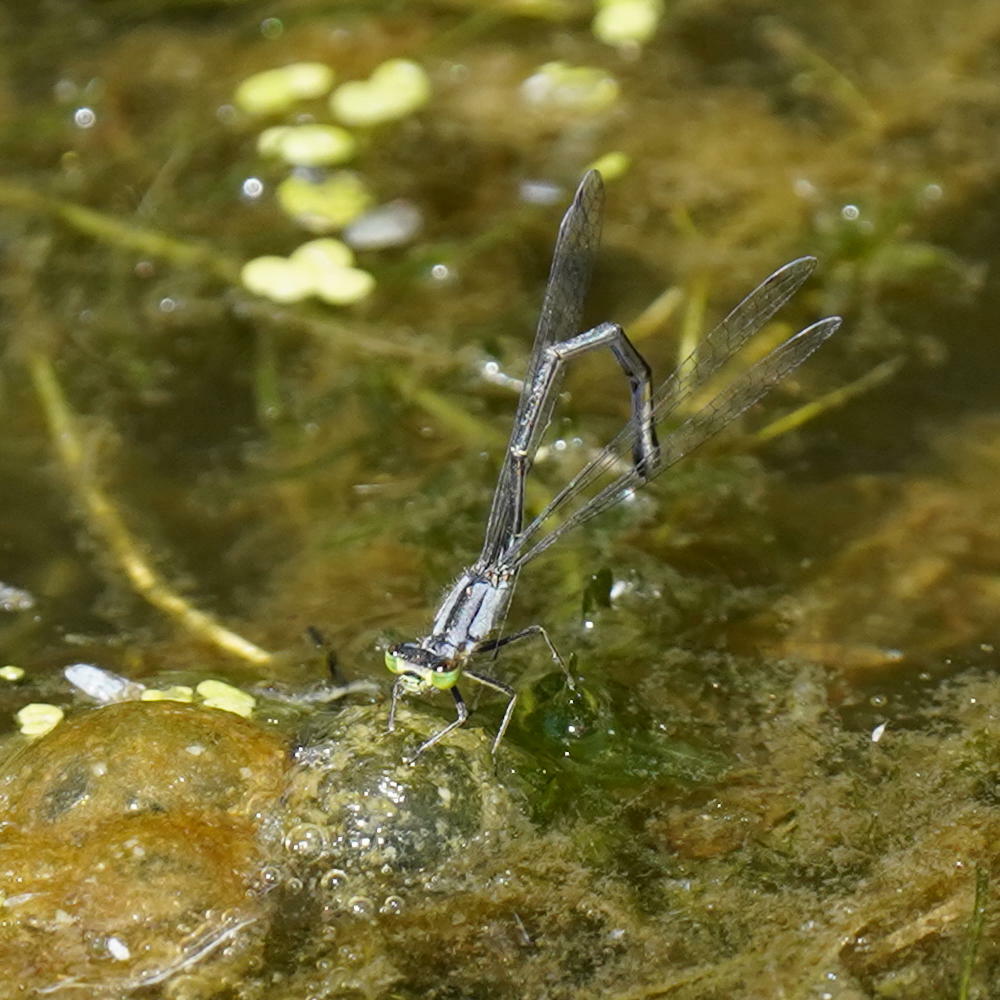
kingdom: Animalia
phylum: Arthropoda
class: Insecta
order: Odonata
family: Coenagrionidae
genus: Ischnura
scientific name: Ischnura cervula
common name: Pacific forktail
